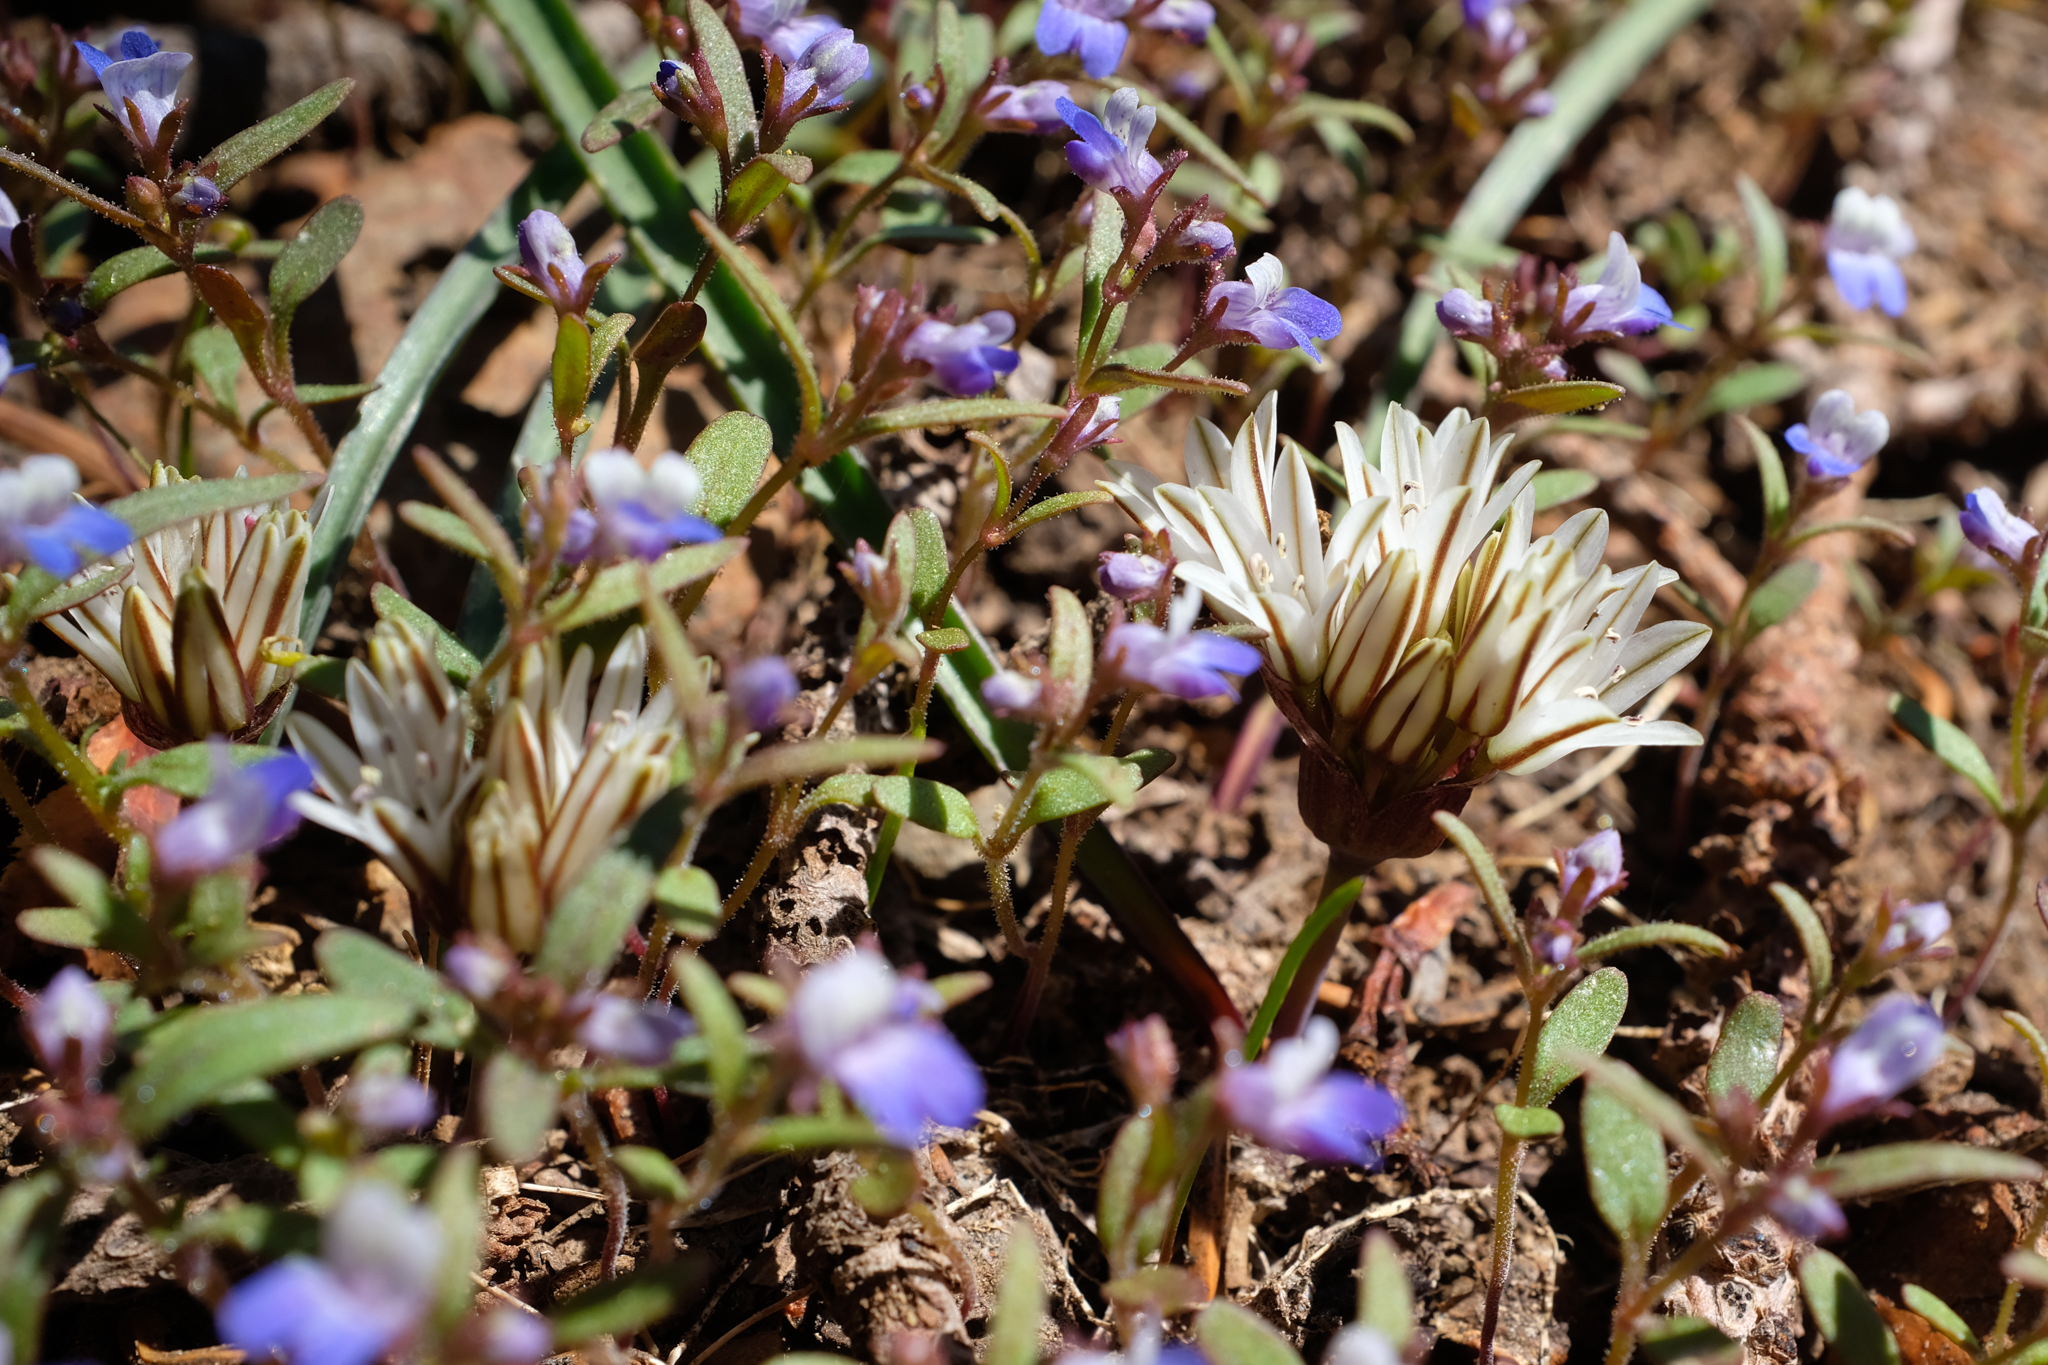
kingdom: Plantae
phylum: Tracheophyta
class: Liliopsida
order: Asparagales
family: Amaryllidaceae
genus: Allium
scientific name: Allium obtusum
